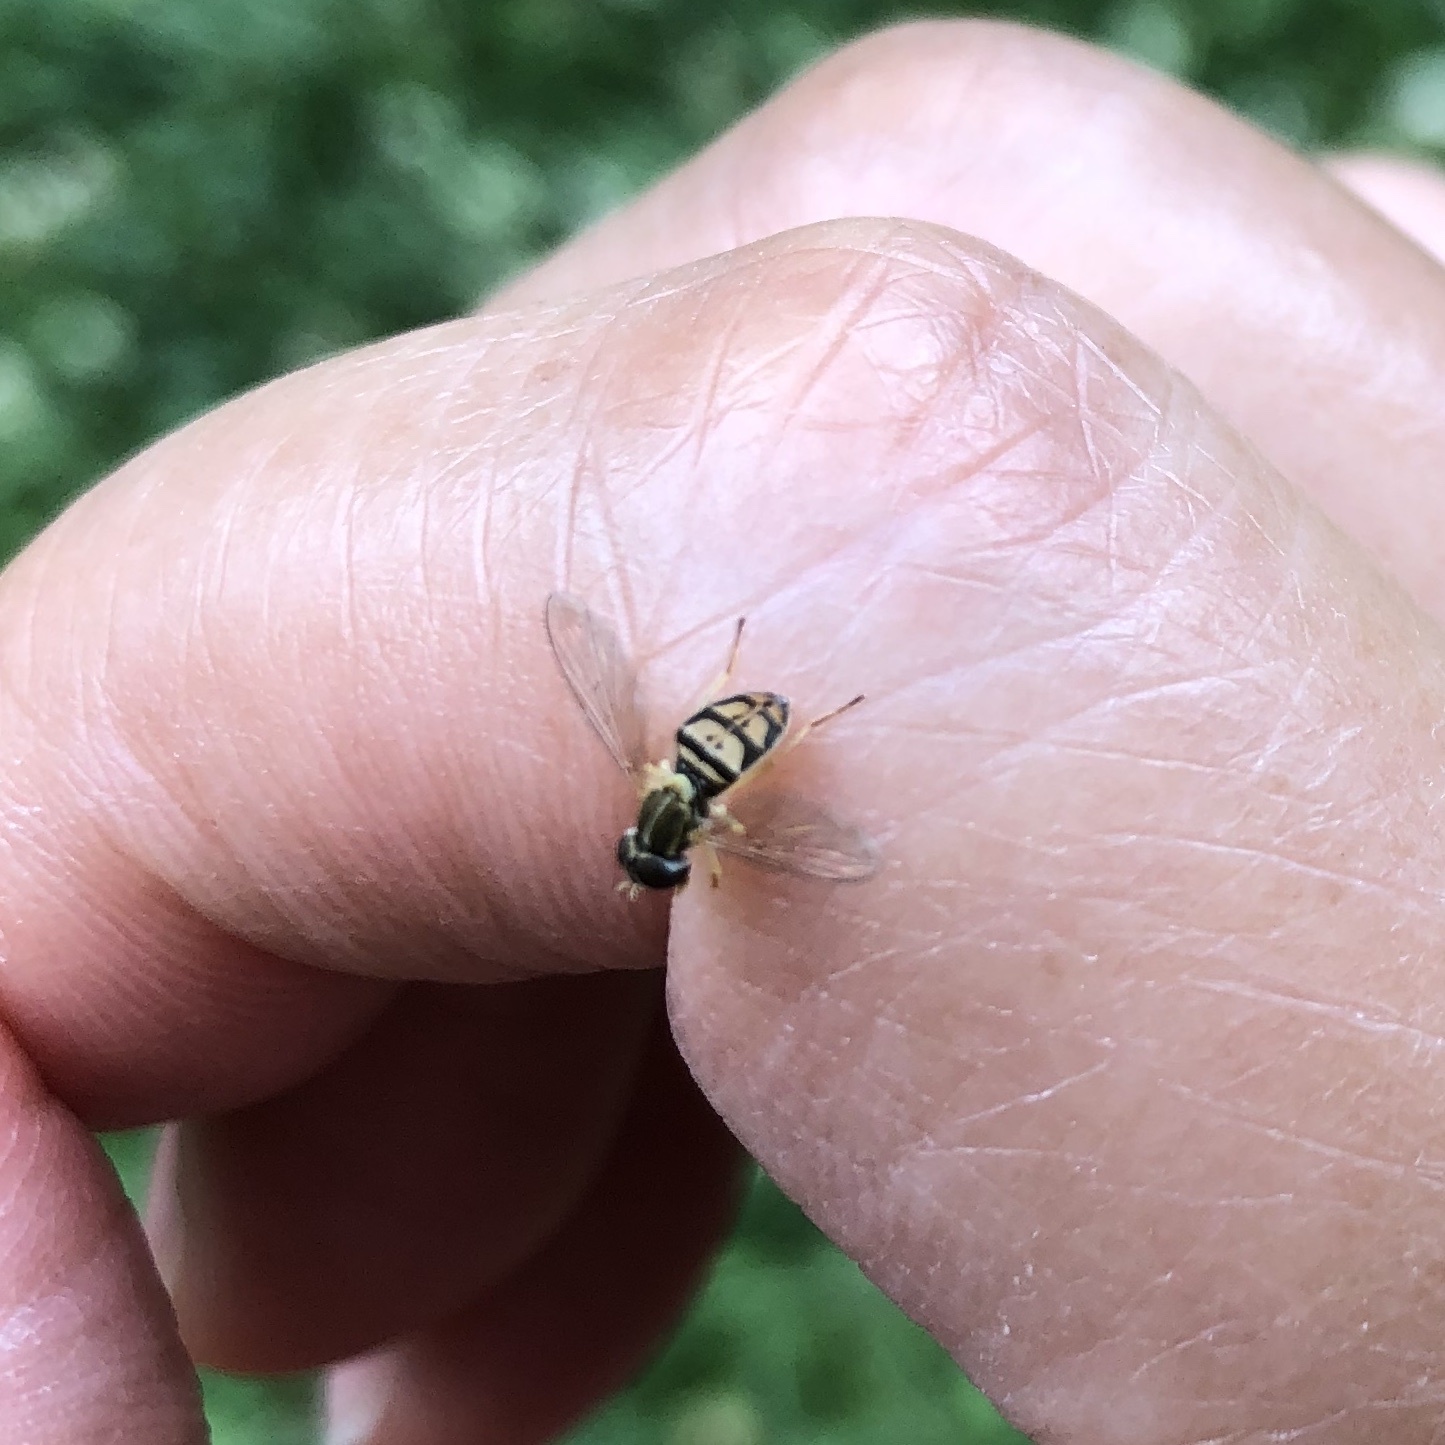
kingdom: Animalia
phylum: Arthropoda
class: Insecta
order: Diptera
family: Syrphidae
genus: Toxomerus
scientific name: Toxomerus marginatus
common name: Syrphid fly
